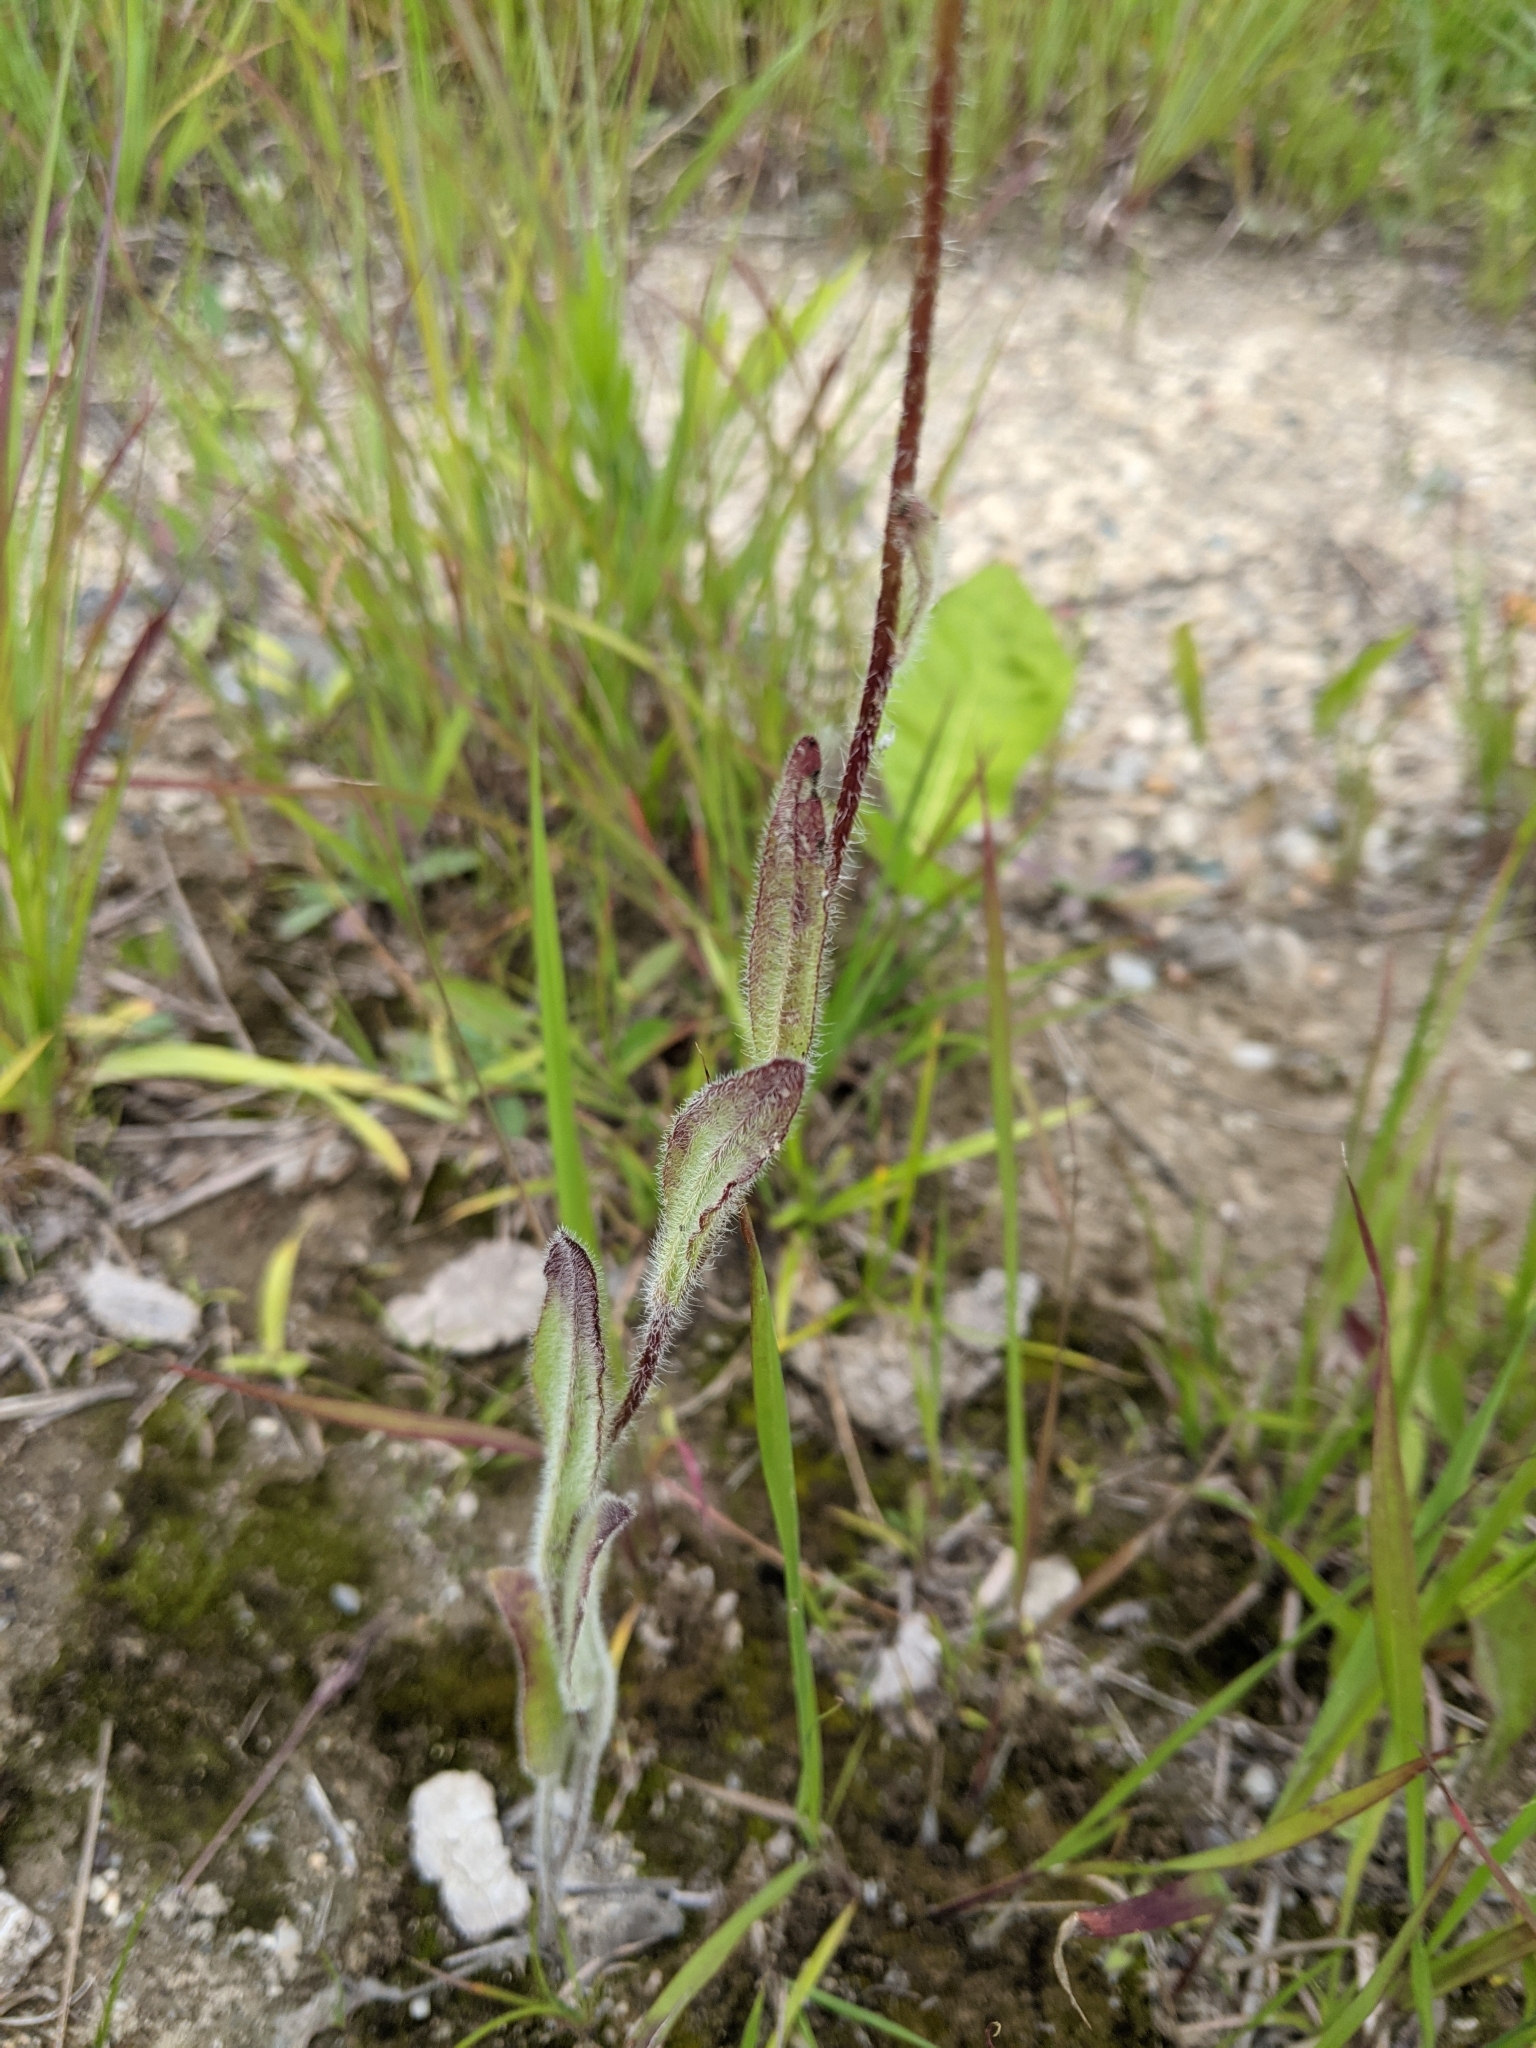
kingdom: Plantae
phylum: Tracheophyta
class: Magnoliopsida
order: Asterales
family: Asteraceae
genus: Rudbeckia
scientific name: Rudbeckia hirta
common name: Black-eyed-susan
